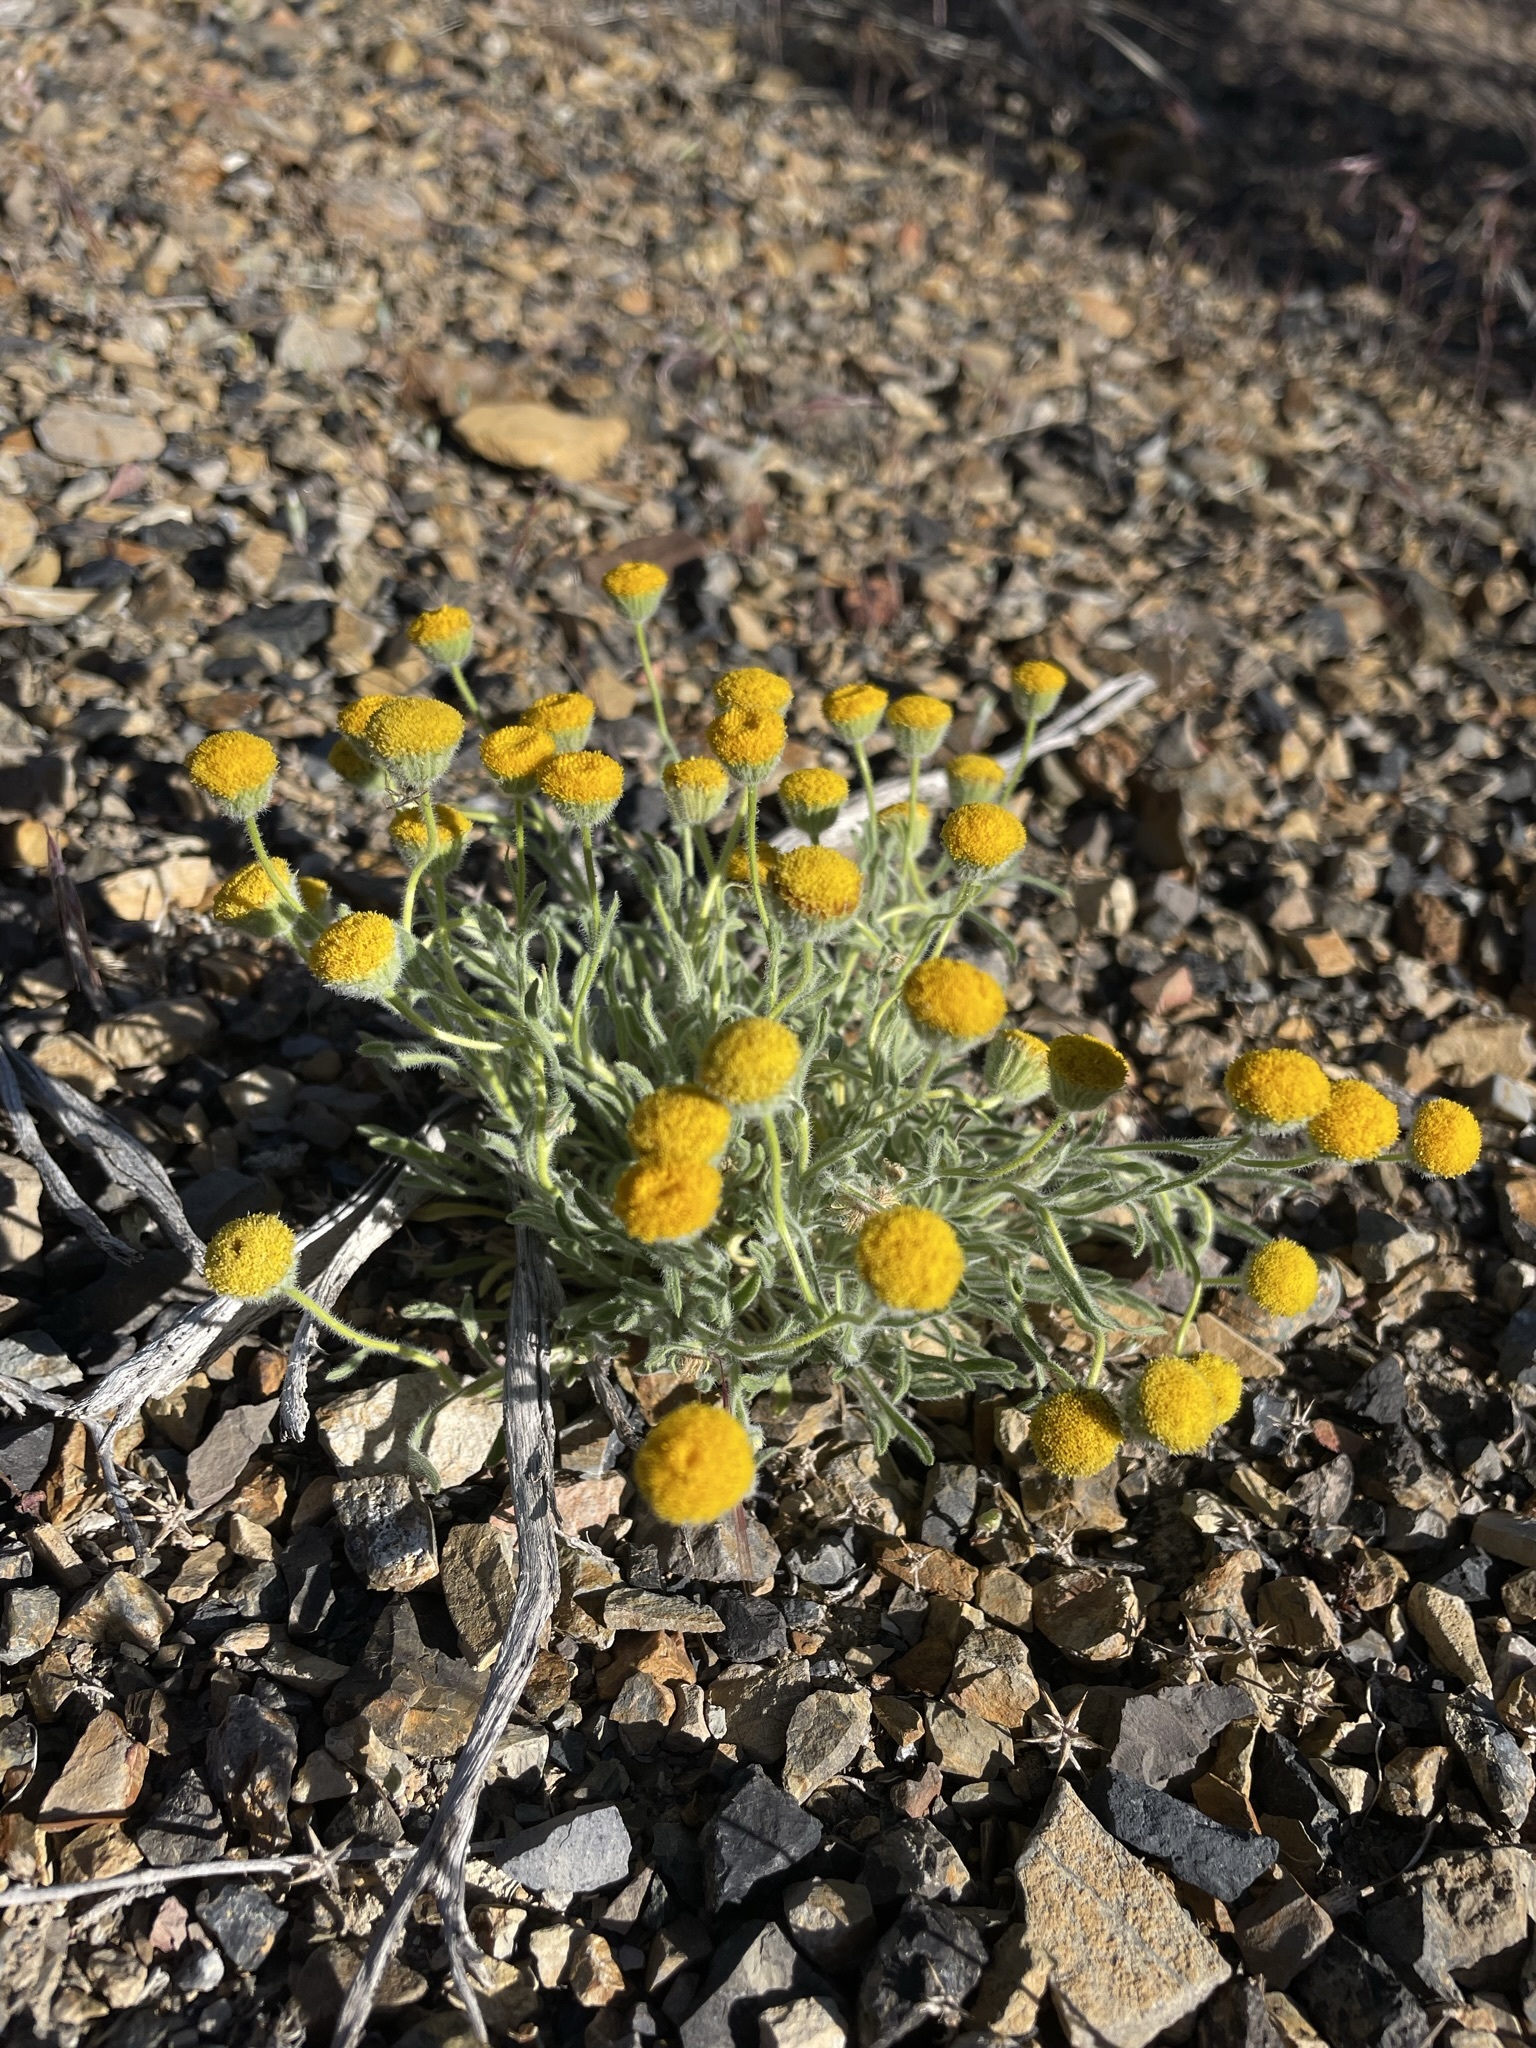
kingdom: Plantae
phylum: Tracheophyta
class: Magnoliopsida
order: Asterales
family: Asteraceae
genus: Erigeron
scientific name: Erigeron aphanactis
